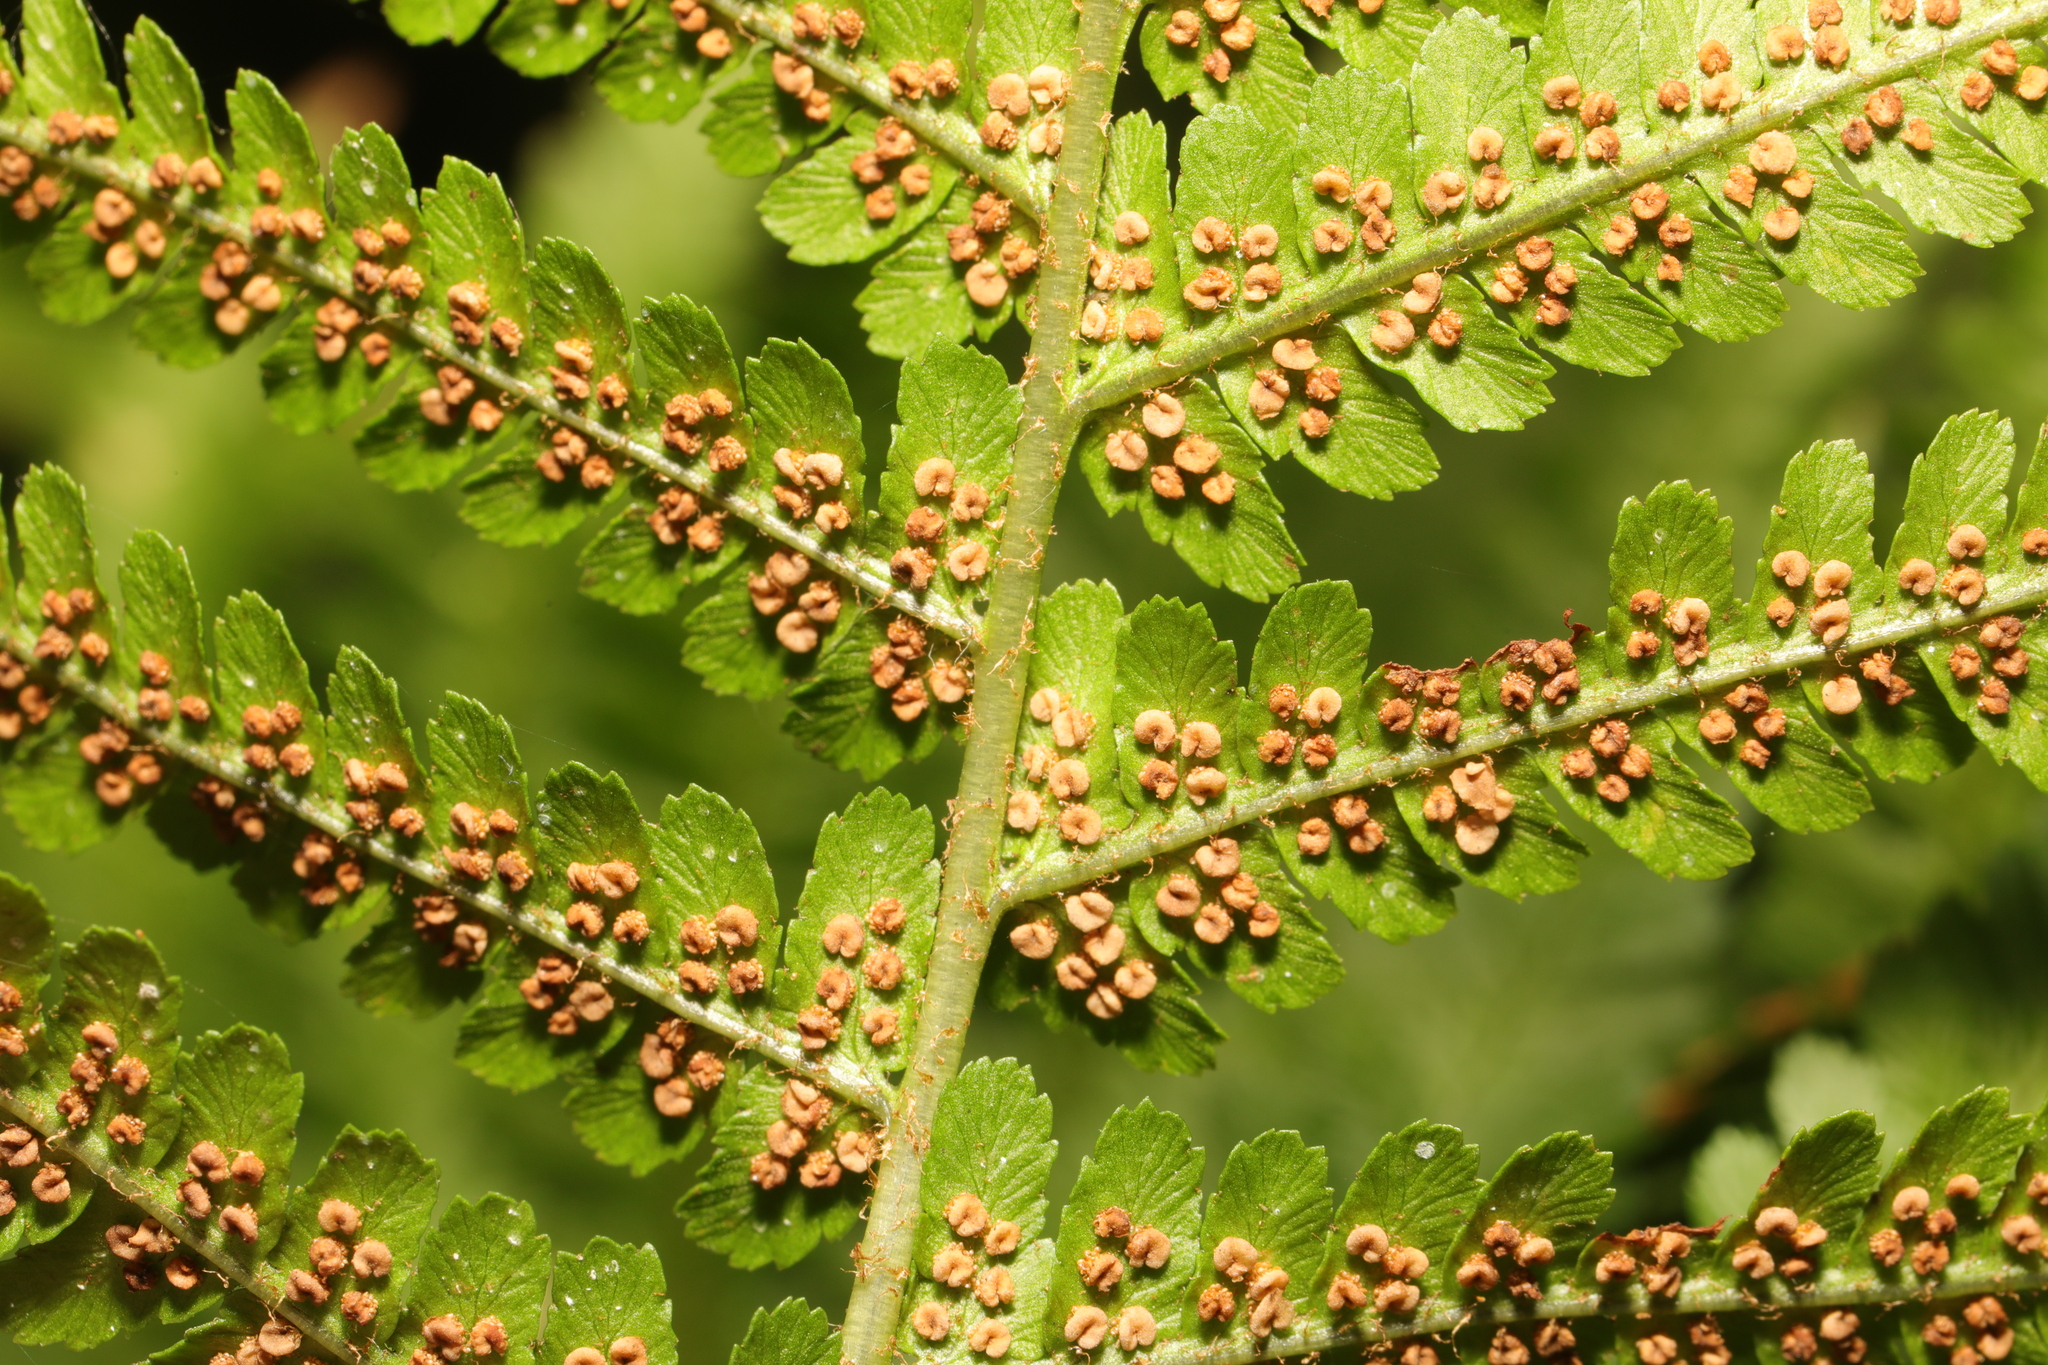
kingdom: Plantae
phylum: Tracheophyta
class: Polypodiopsida
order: Polypodiales
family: Dryopteridaceae
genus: Dryopteris
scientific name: Dryopteris filix-mas
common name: Male fern
